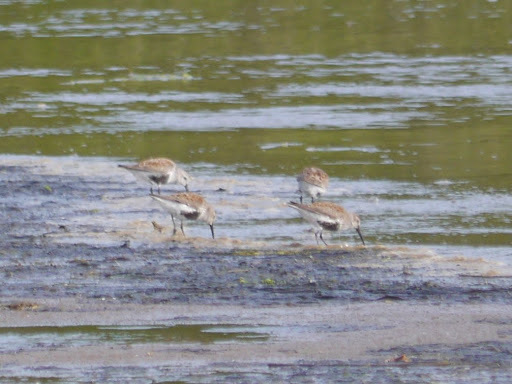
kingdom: Animalia
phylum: Chordata
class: Aves
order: Charadriiformes
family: Scolopacidae
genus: Calidris
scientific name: Calidris alpina
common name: Dunlin
